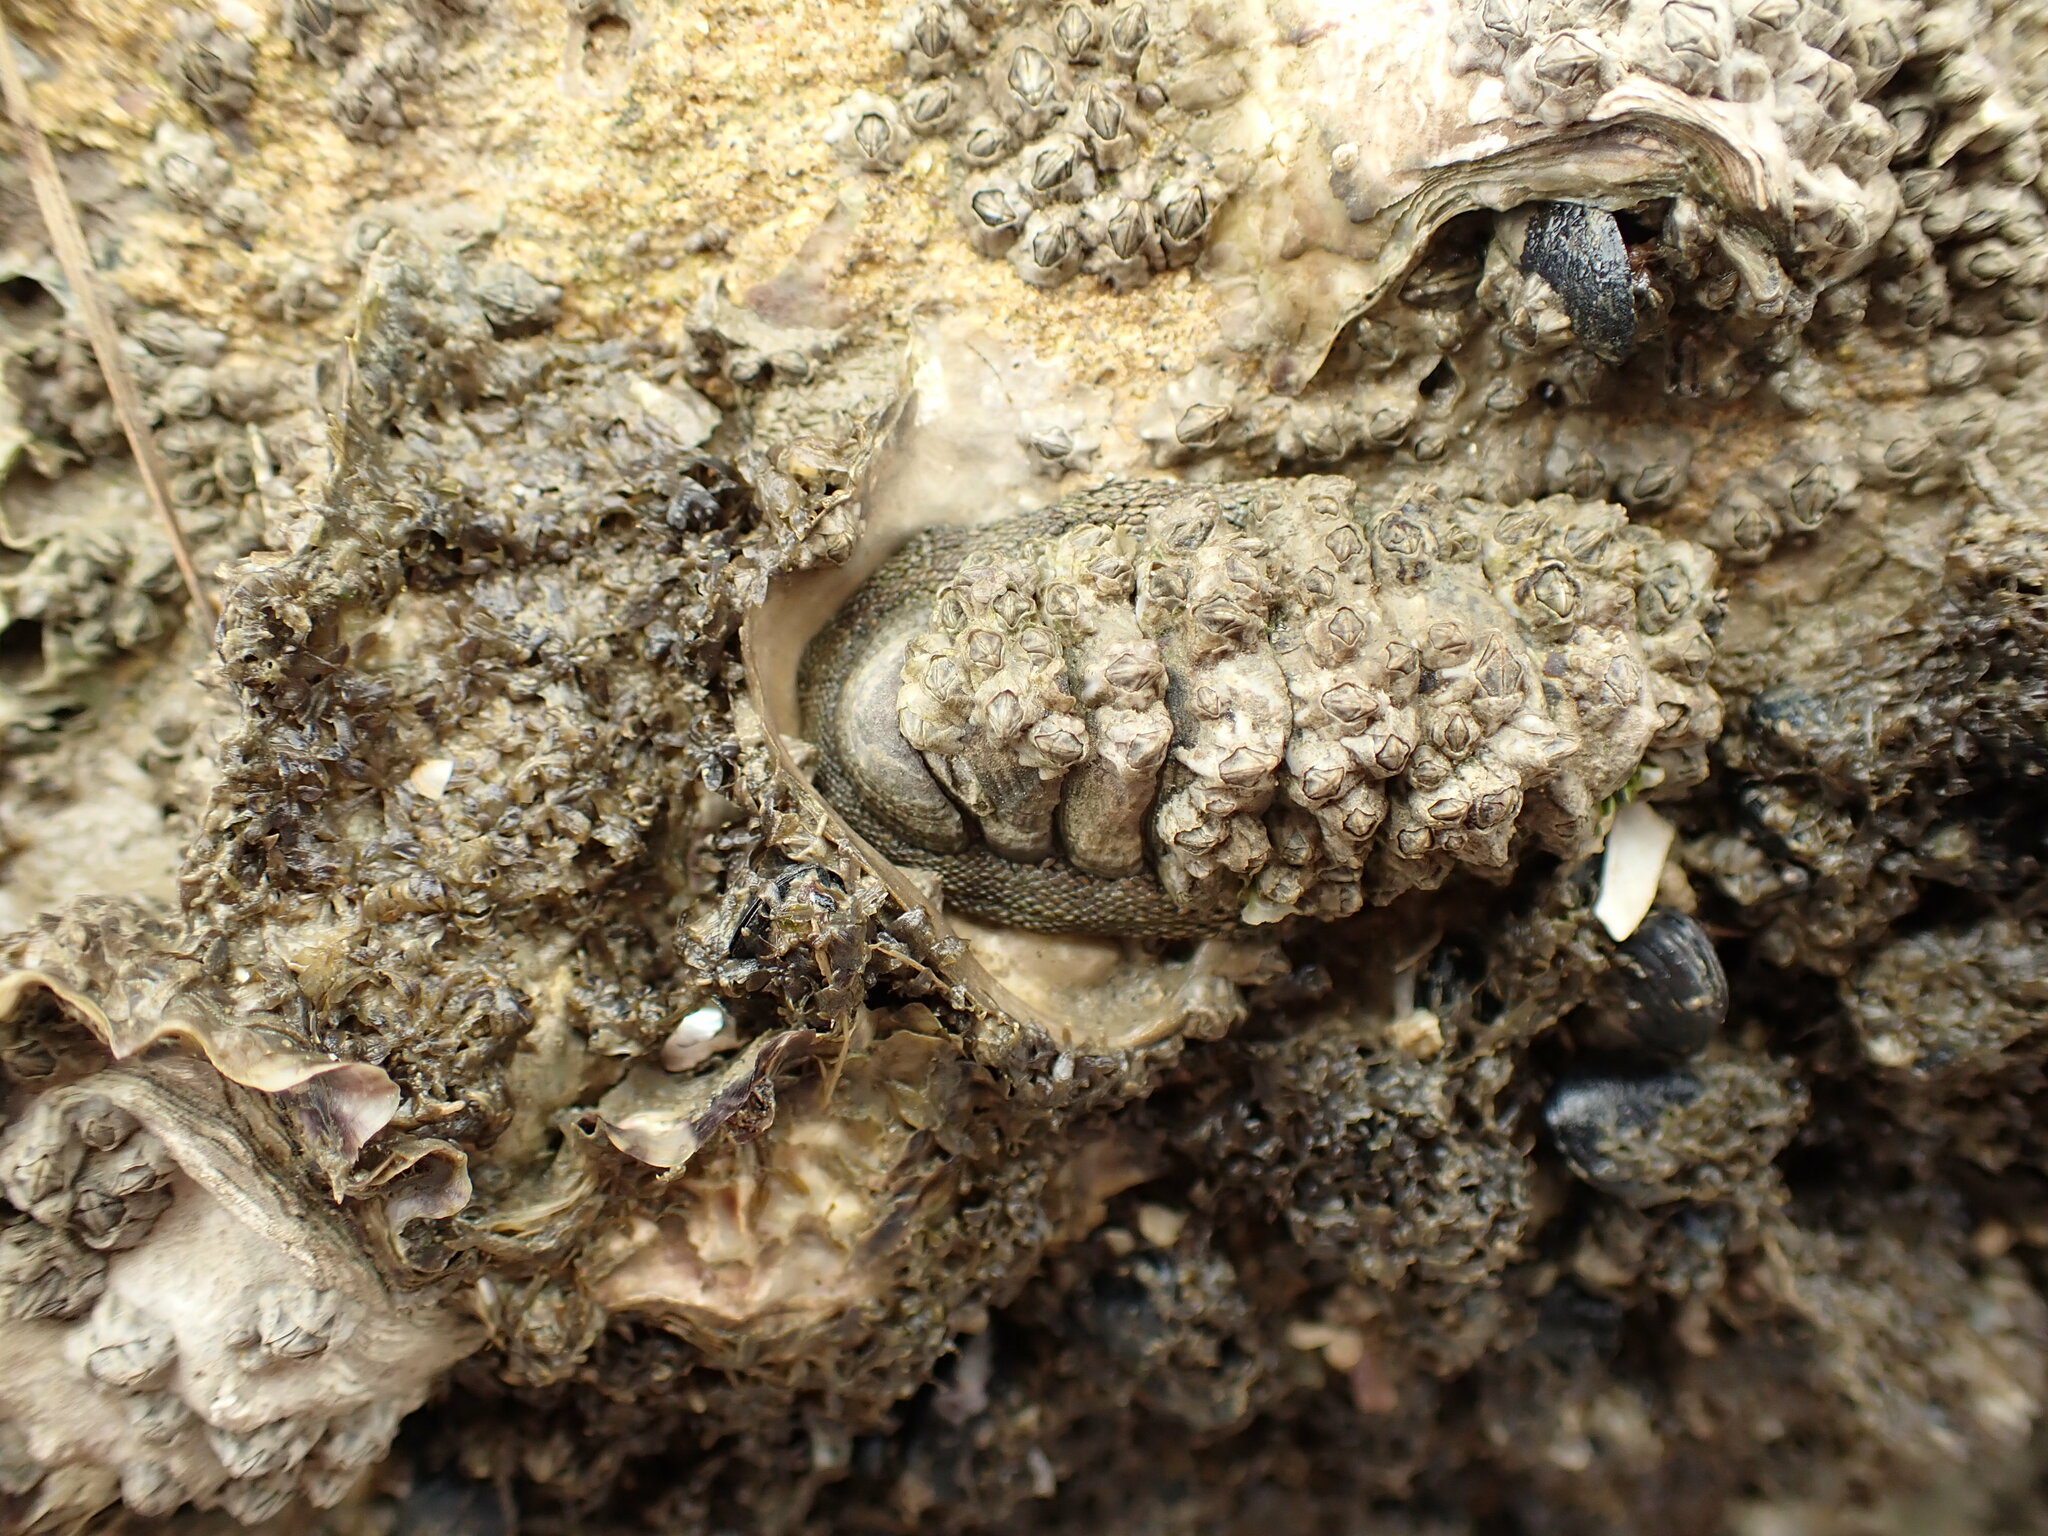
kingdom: Animalia
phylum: Mollusca
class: Polyplacophora
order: Chitonida
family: Chitonidae
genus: Sypharochiton
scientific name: Sypharochiton pelliserpentis
